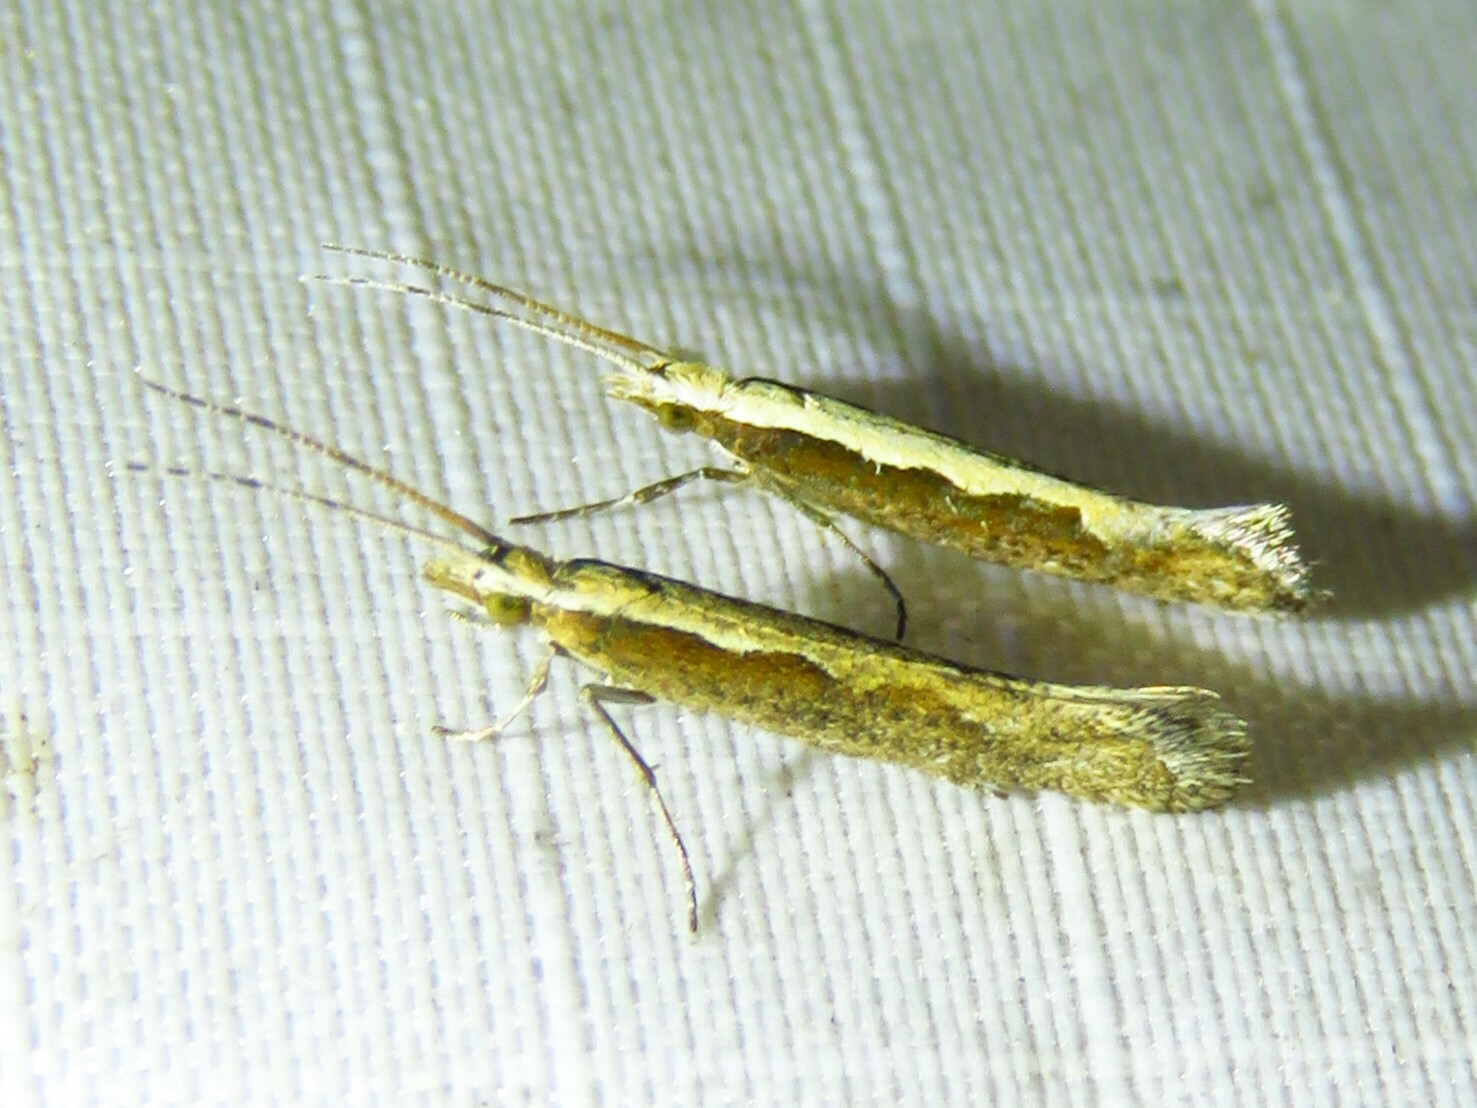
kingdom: Animalia
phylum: Arthropoda
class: Insecta
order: Lepidoptera
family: Plutellidae
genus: Plutella
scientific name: Plutella xylostella
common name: Diamond-back moth
